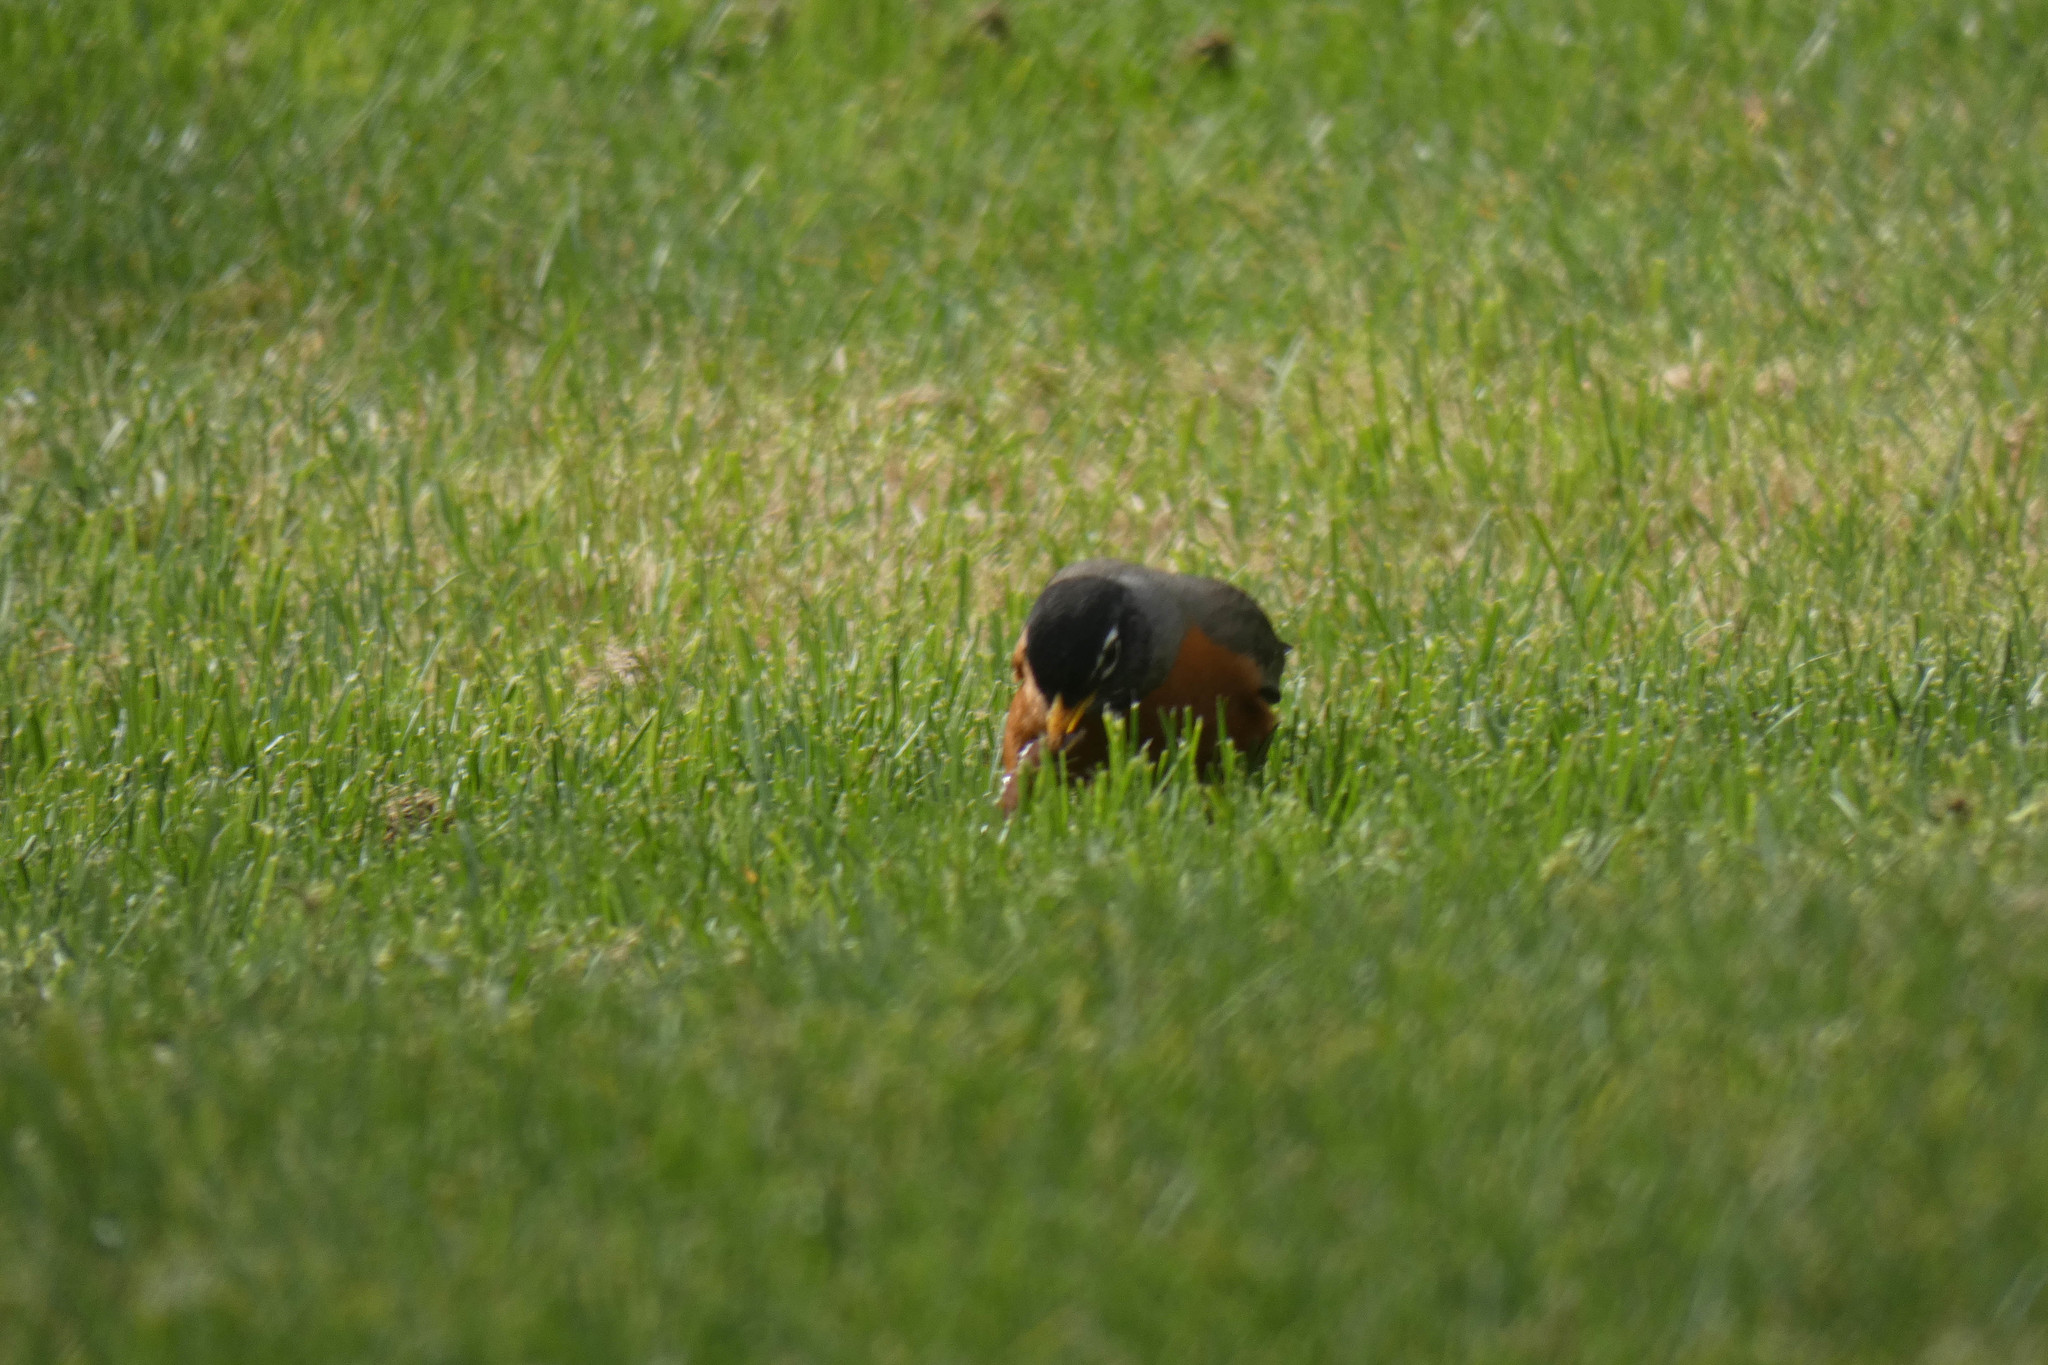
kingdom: Animalia
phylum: Chordata
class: Aves
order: Passeriformes
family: Turdidae
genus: Turdus
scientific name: Turdus migratorius
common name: American robin
